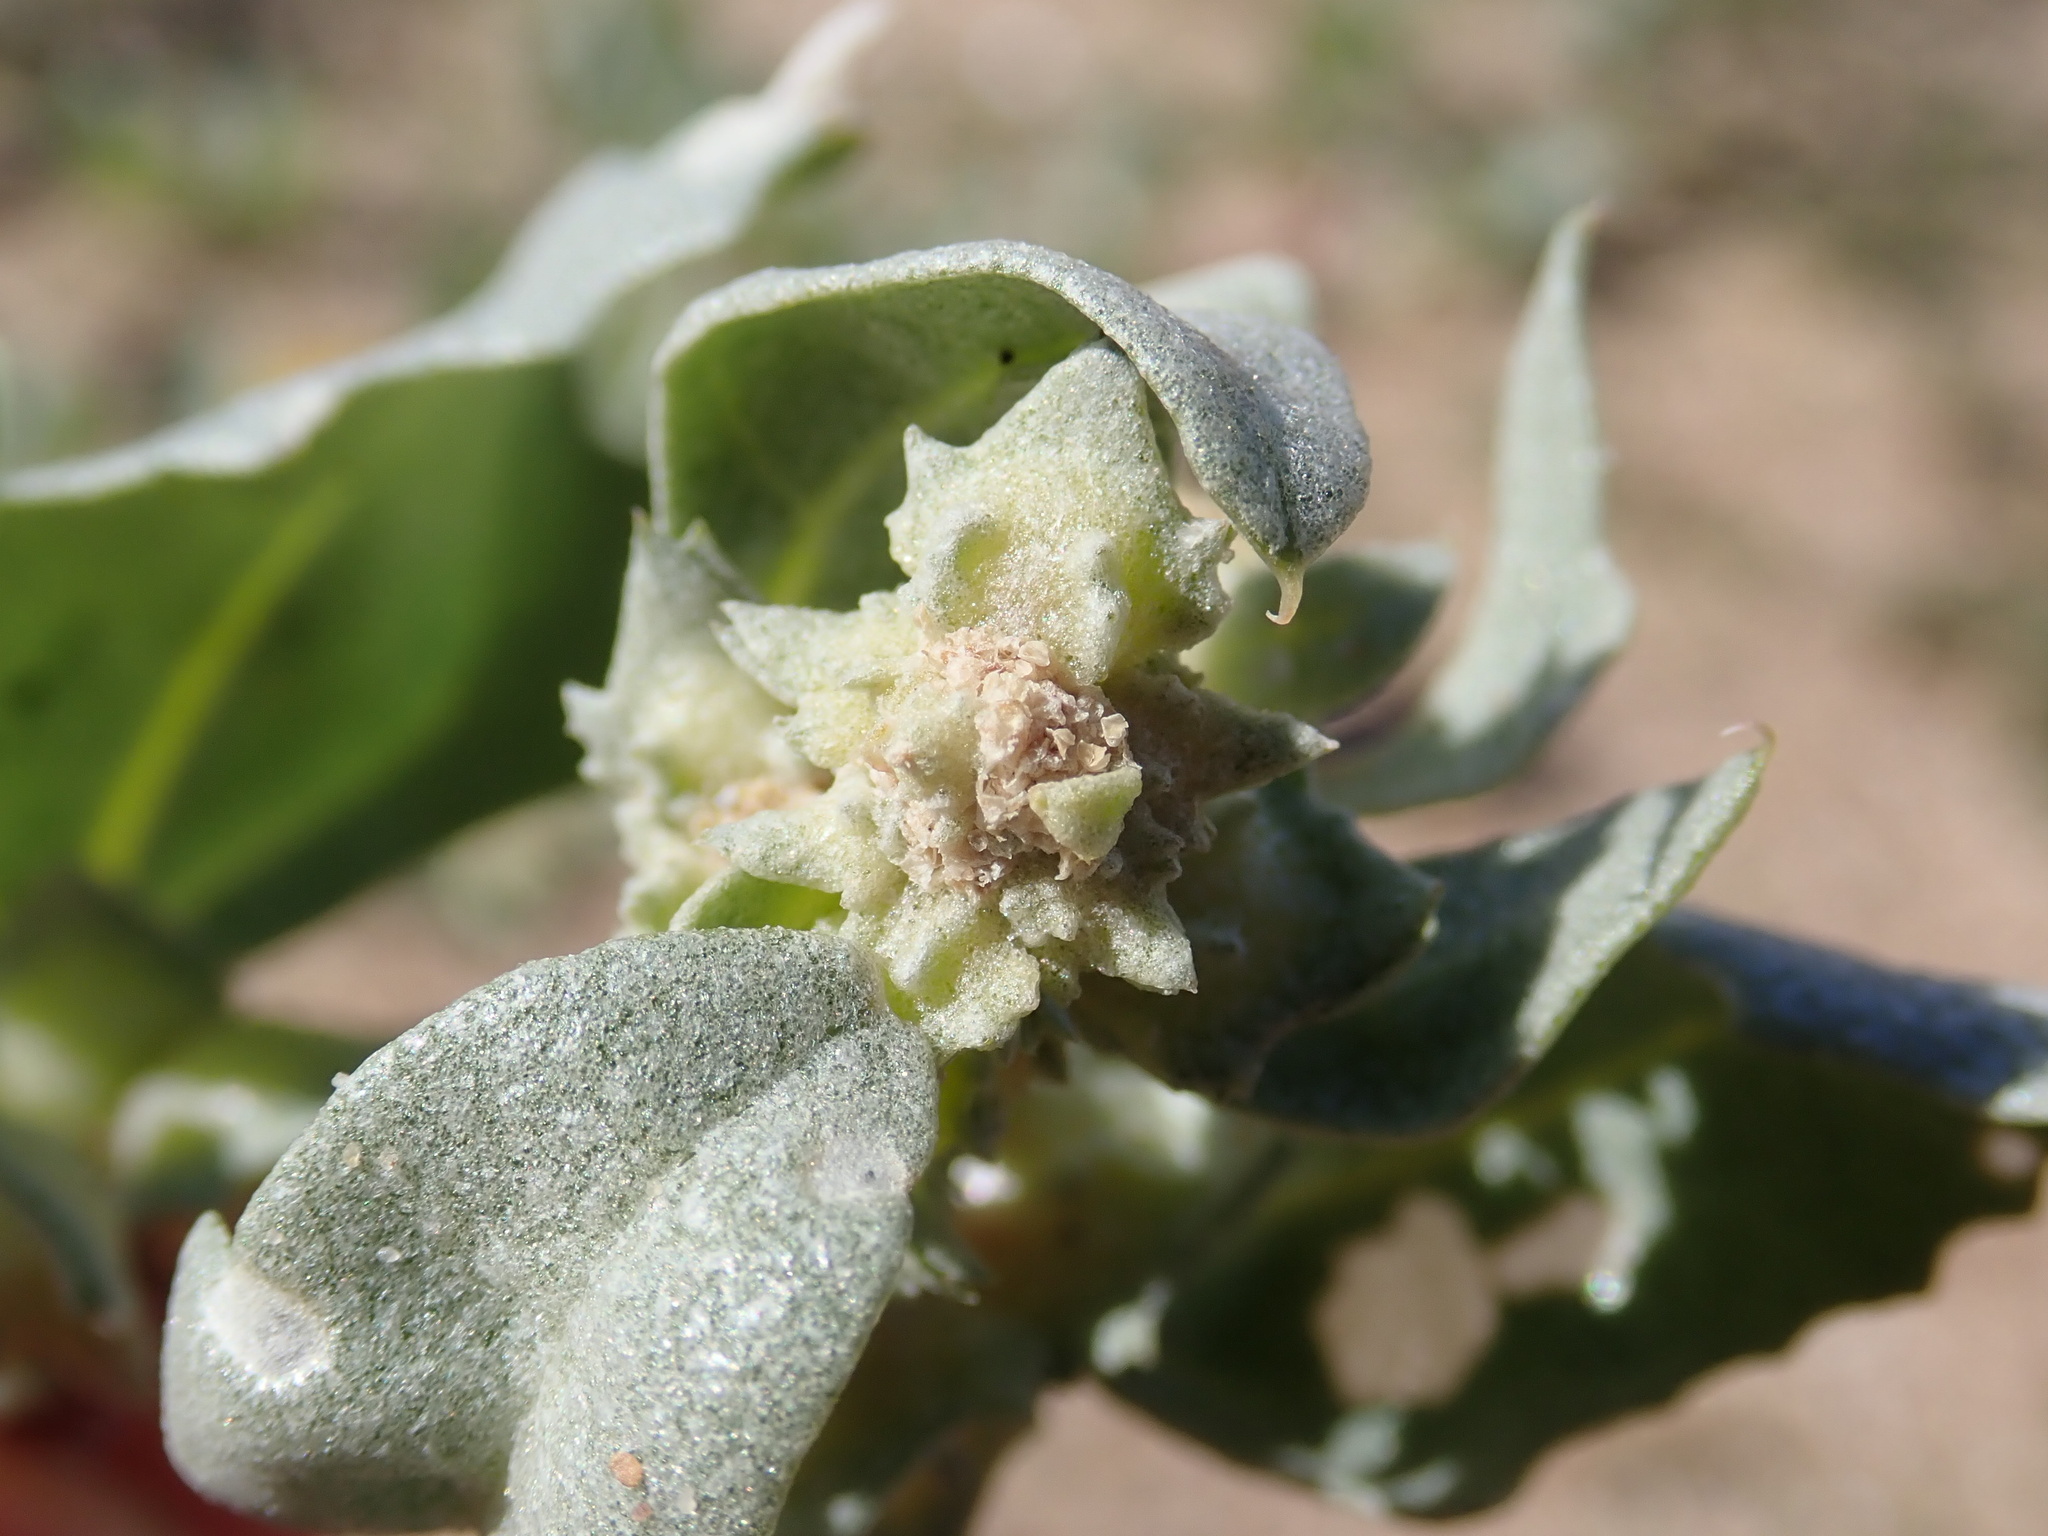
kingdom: Plantae
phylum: Tracheophyta
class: Magnoliopsida
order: Caryophyllales
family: Amaranthaceae
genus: Atriplex
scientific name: Atriplex laciniata
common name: Frosted orache
